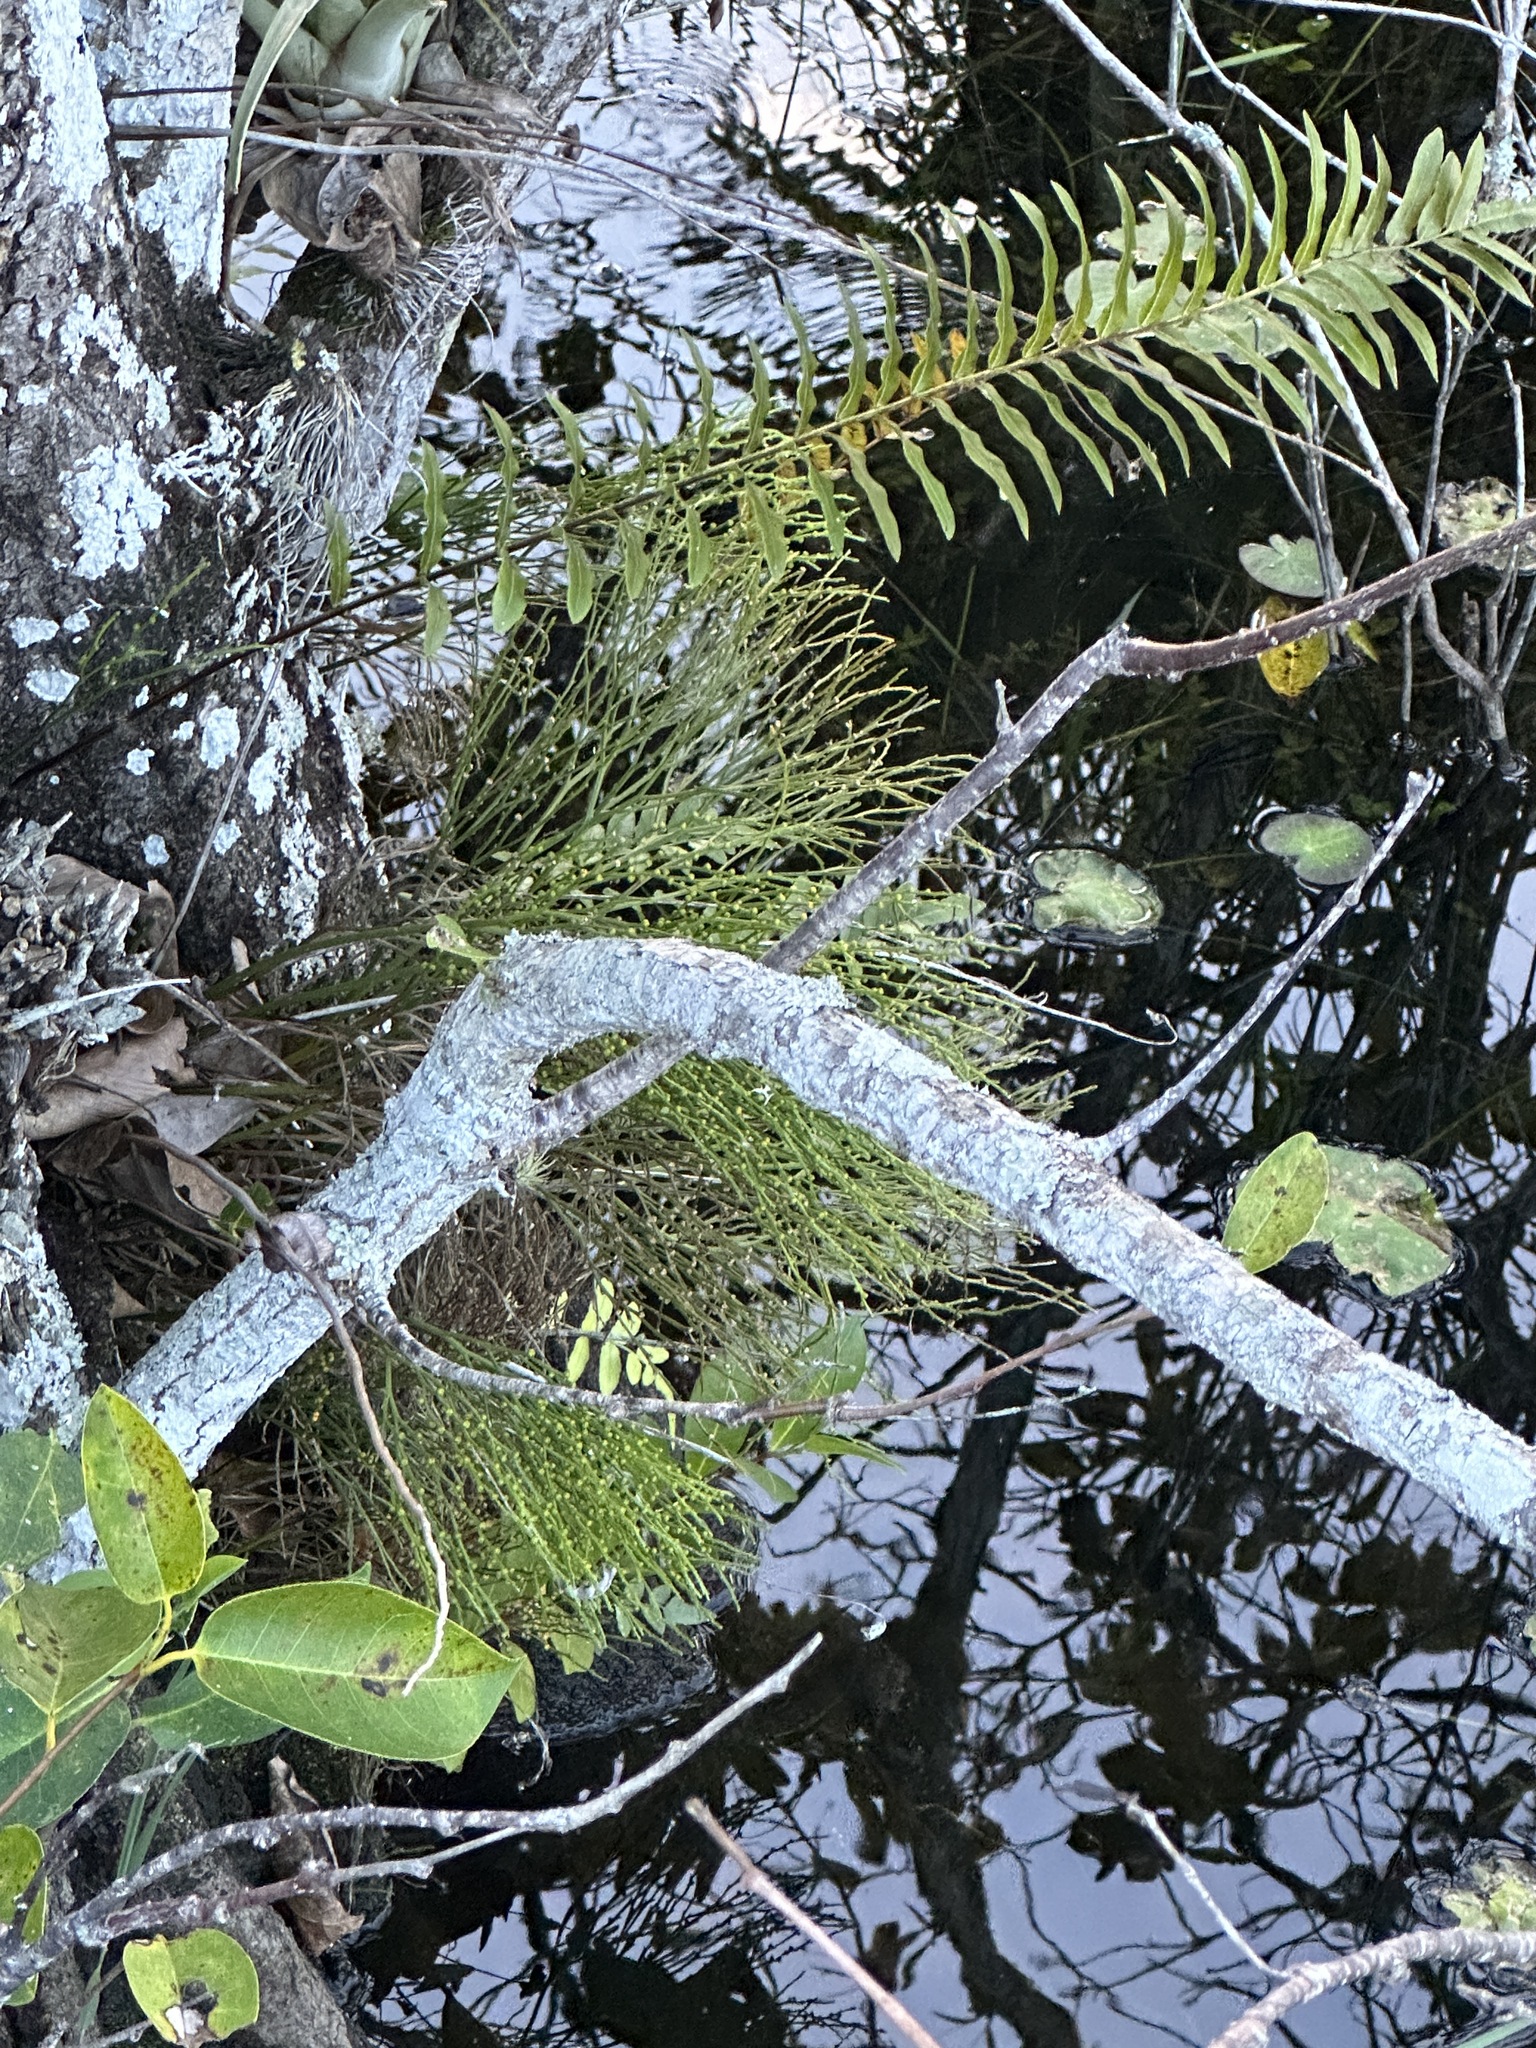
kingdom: Plantae
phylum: Tracheophyta
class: Polypodiopsida
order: Psilotales
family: Psilotaceae
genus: Psilotum
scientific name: Psilotum nudum
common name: Skeleton fork fern
